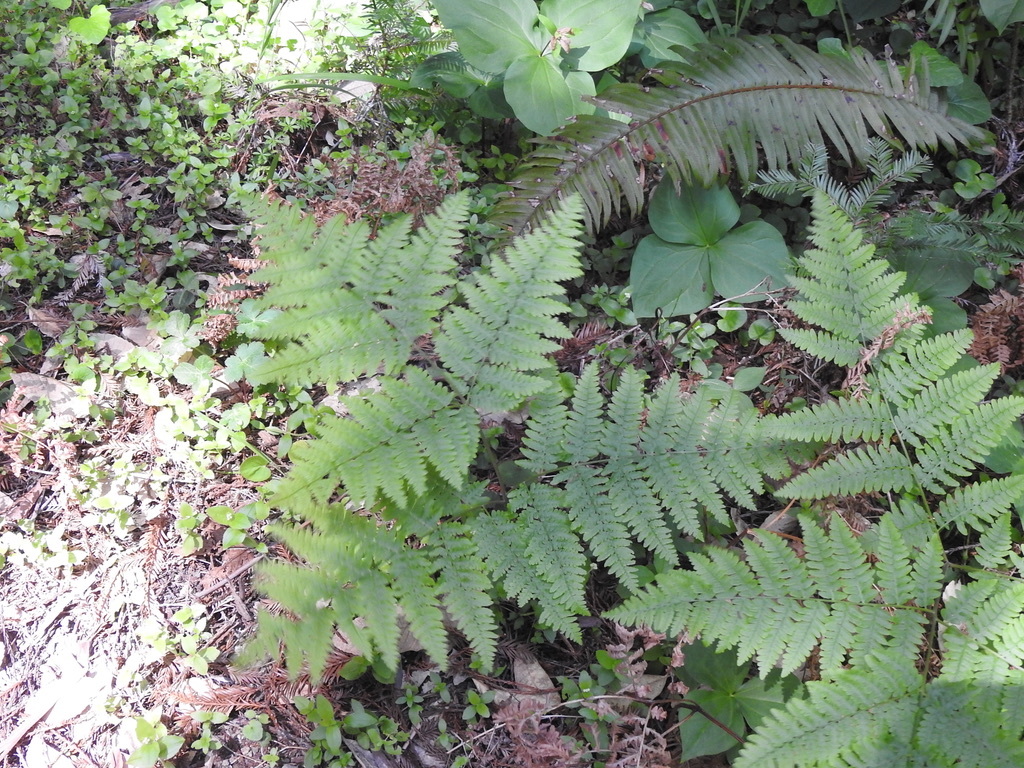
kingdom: Plantae
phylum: Tracheophyta
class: Polypodiopsida
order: Polypodiales
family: Dennstaedtiaceae
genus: Pteridium
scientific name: Pteridium aquilinum
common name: Bracken
